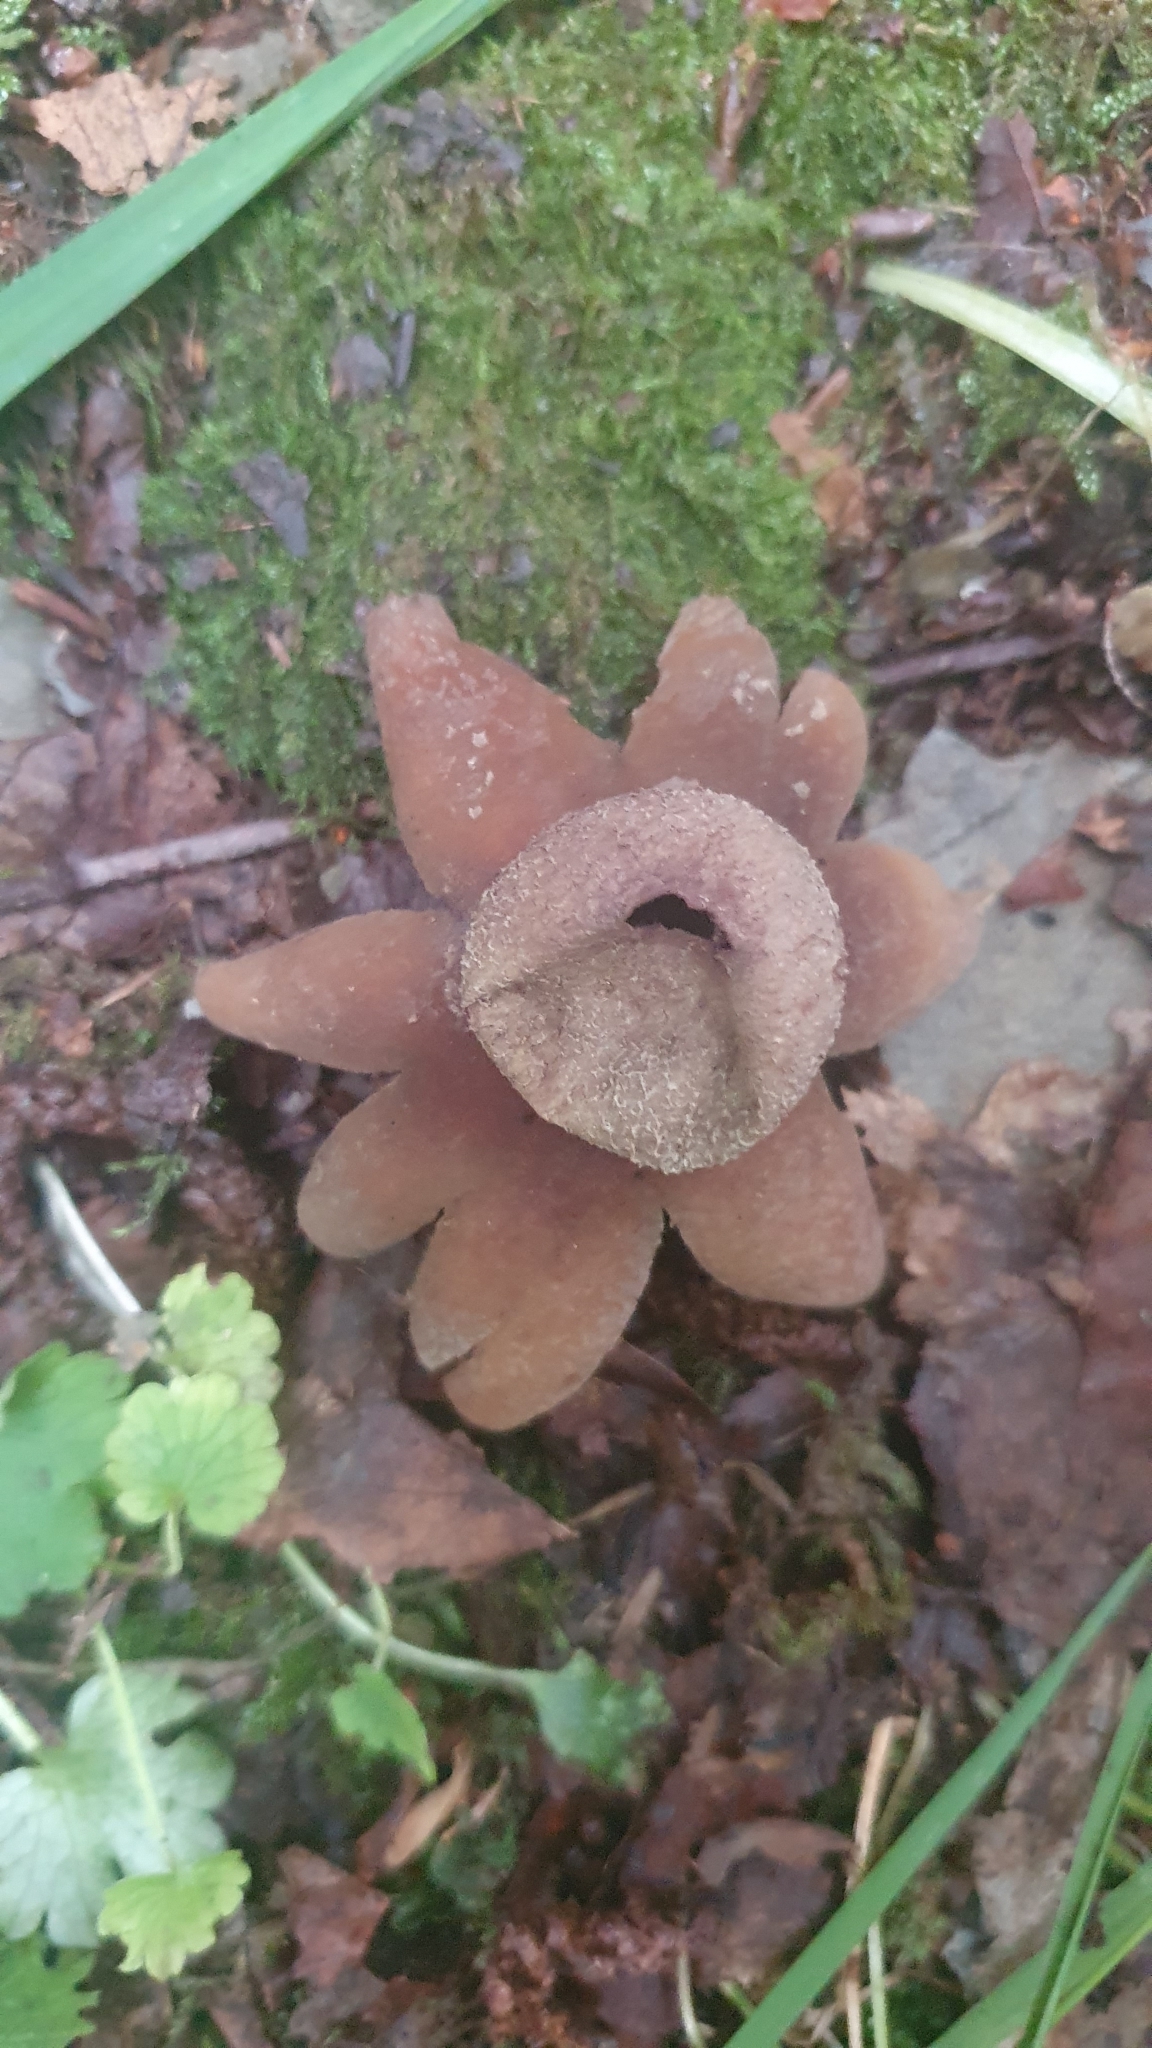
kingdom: Fungi
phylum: Basidiomycota
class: Agaricomycetes
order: Boletales
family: Diplocystidiaceae
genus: Astraeus
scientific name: Astraeus hygrometricus
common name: Barometer earthstar
